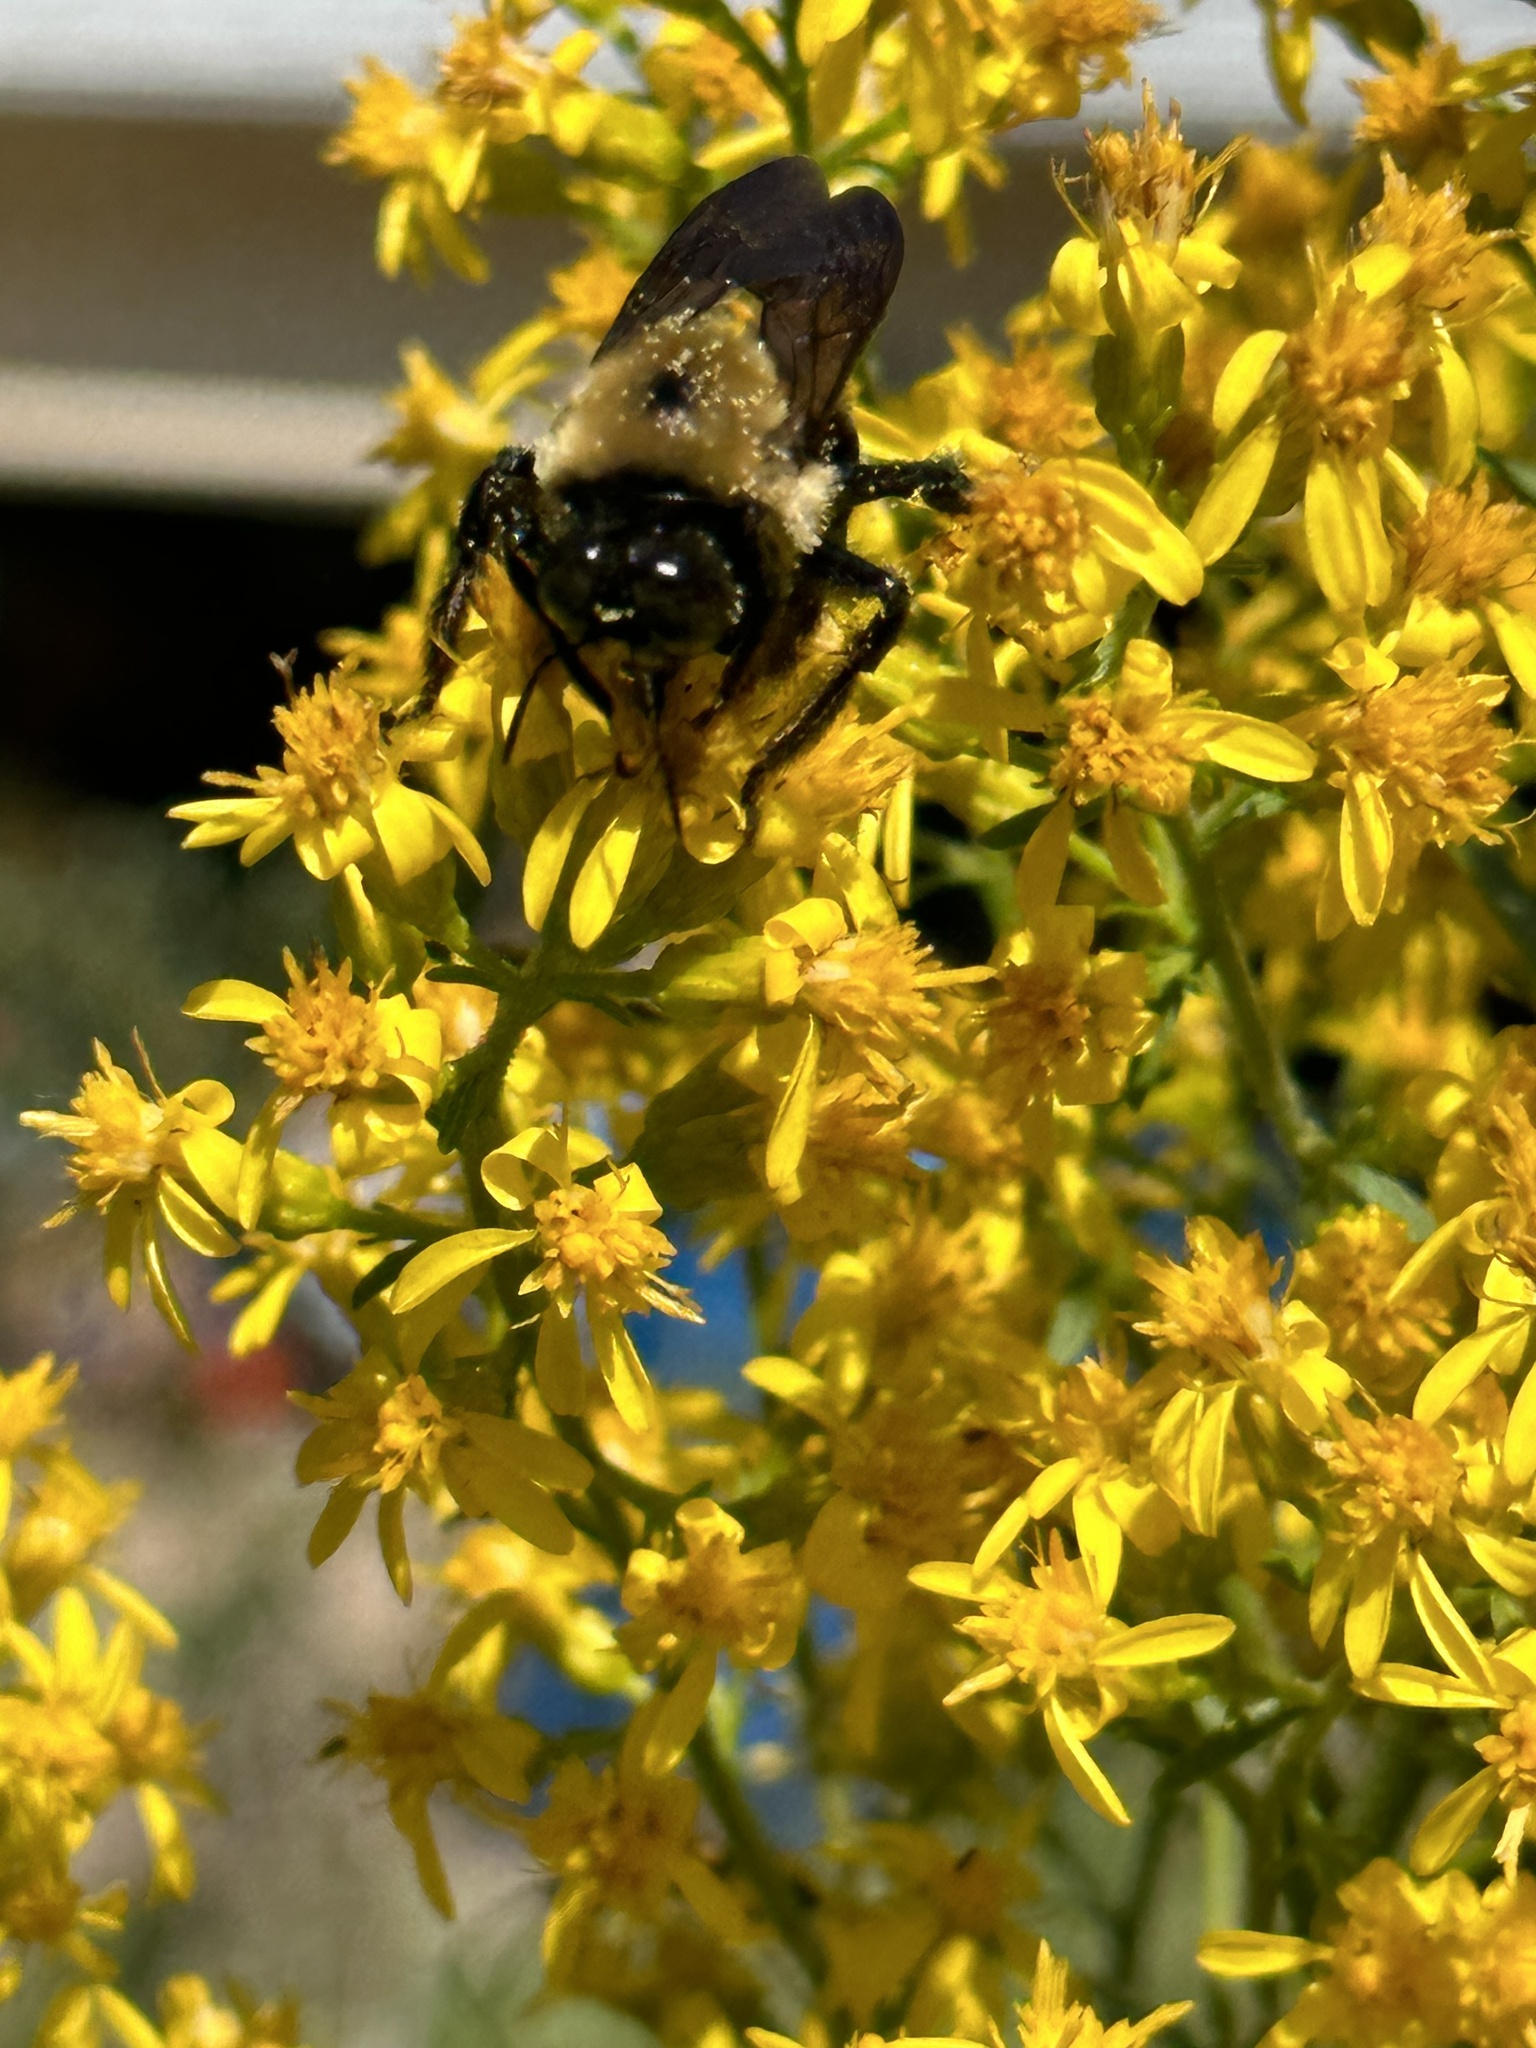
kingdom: Animalia
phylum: Arthropoda
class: Insecta
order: Hymenoptera
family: Apidae
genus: Xylocopa
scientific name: Xylocopa virginica
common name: Carpenter bee
